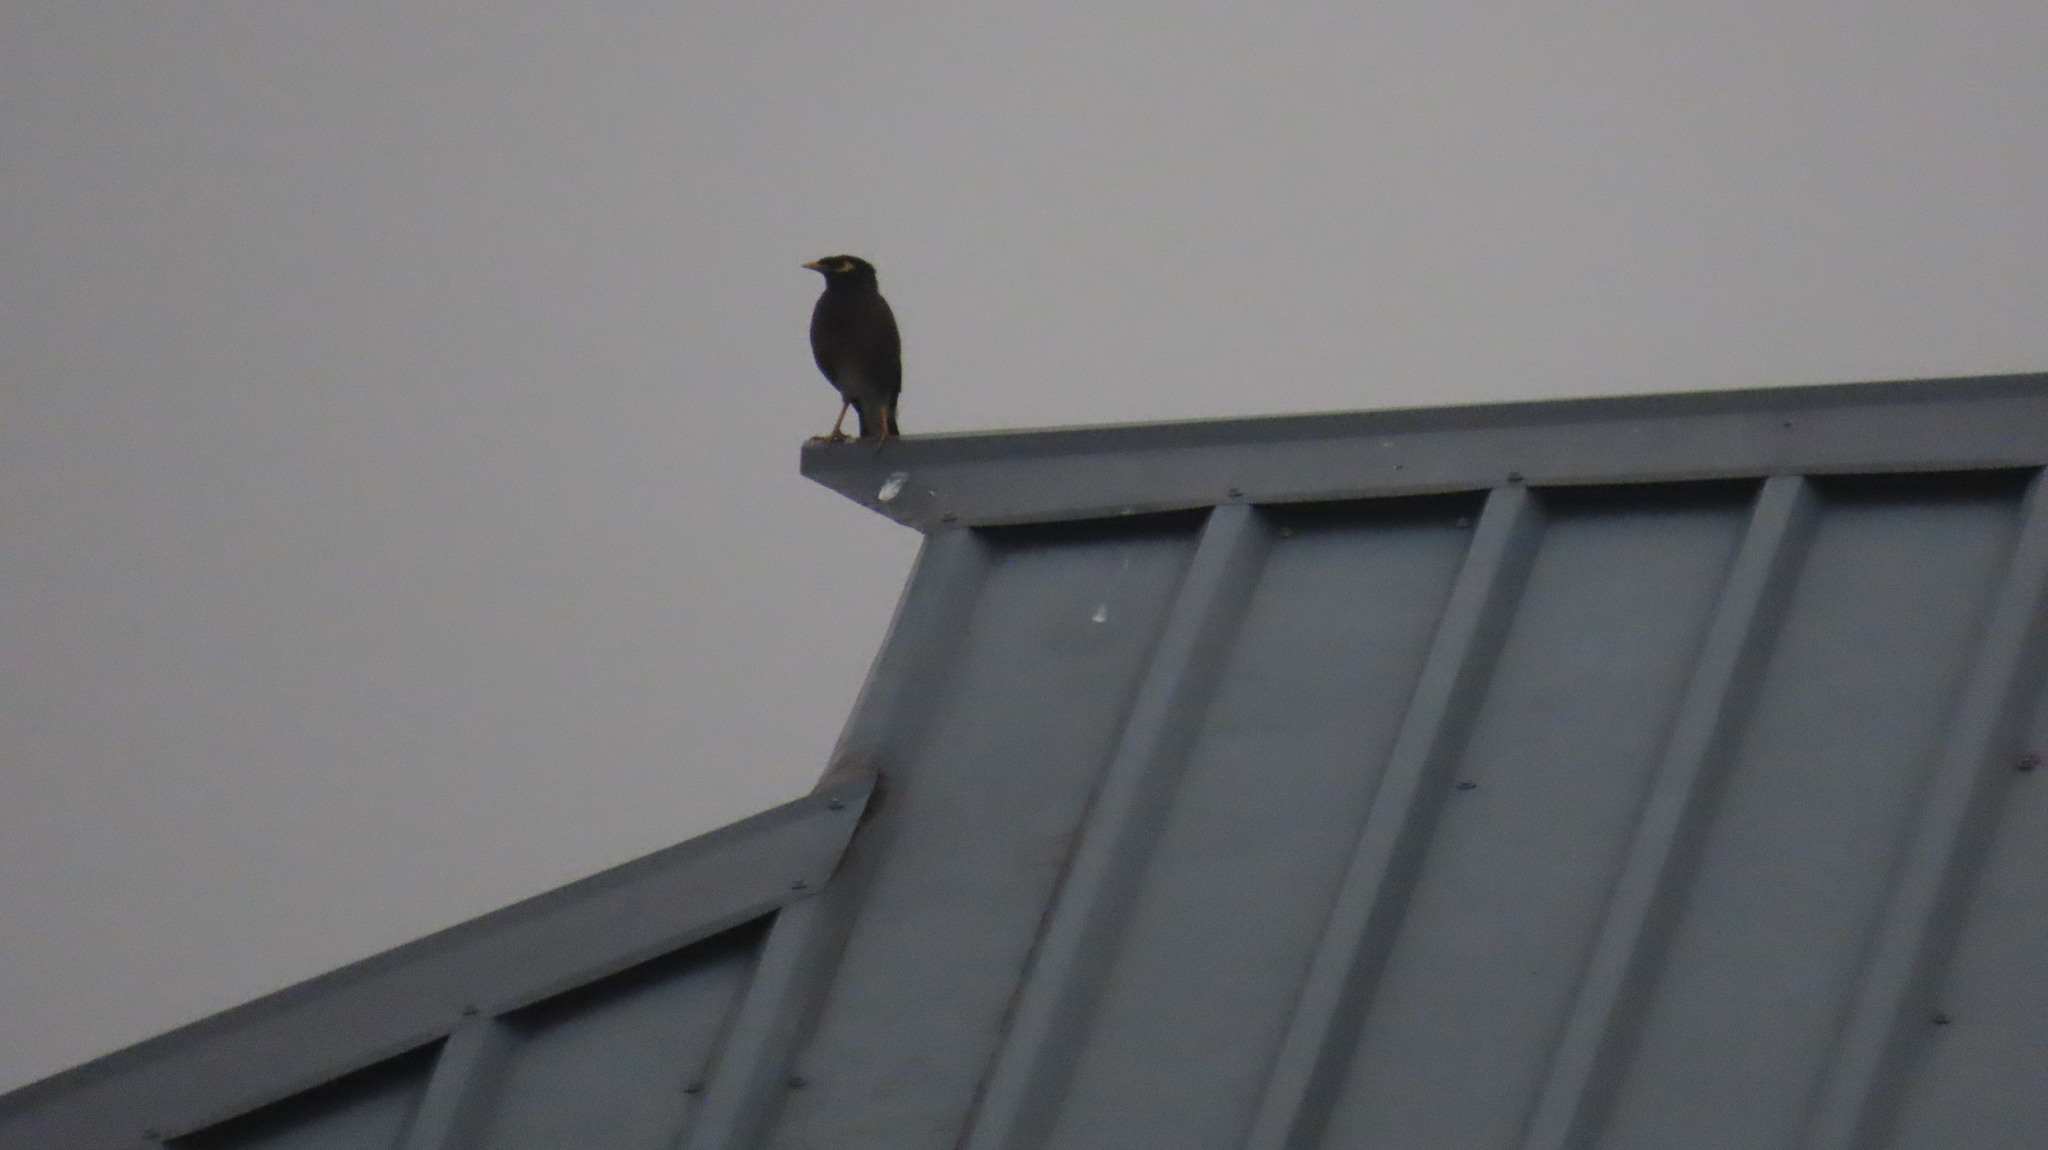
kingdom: Animalia
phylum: Chordata
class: Aves
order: Passeriformes
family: Sturnidae
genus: Acridotheres
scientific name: Acridotheres tristis
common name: Common myna
